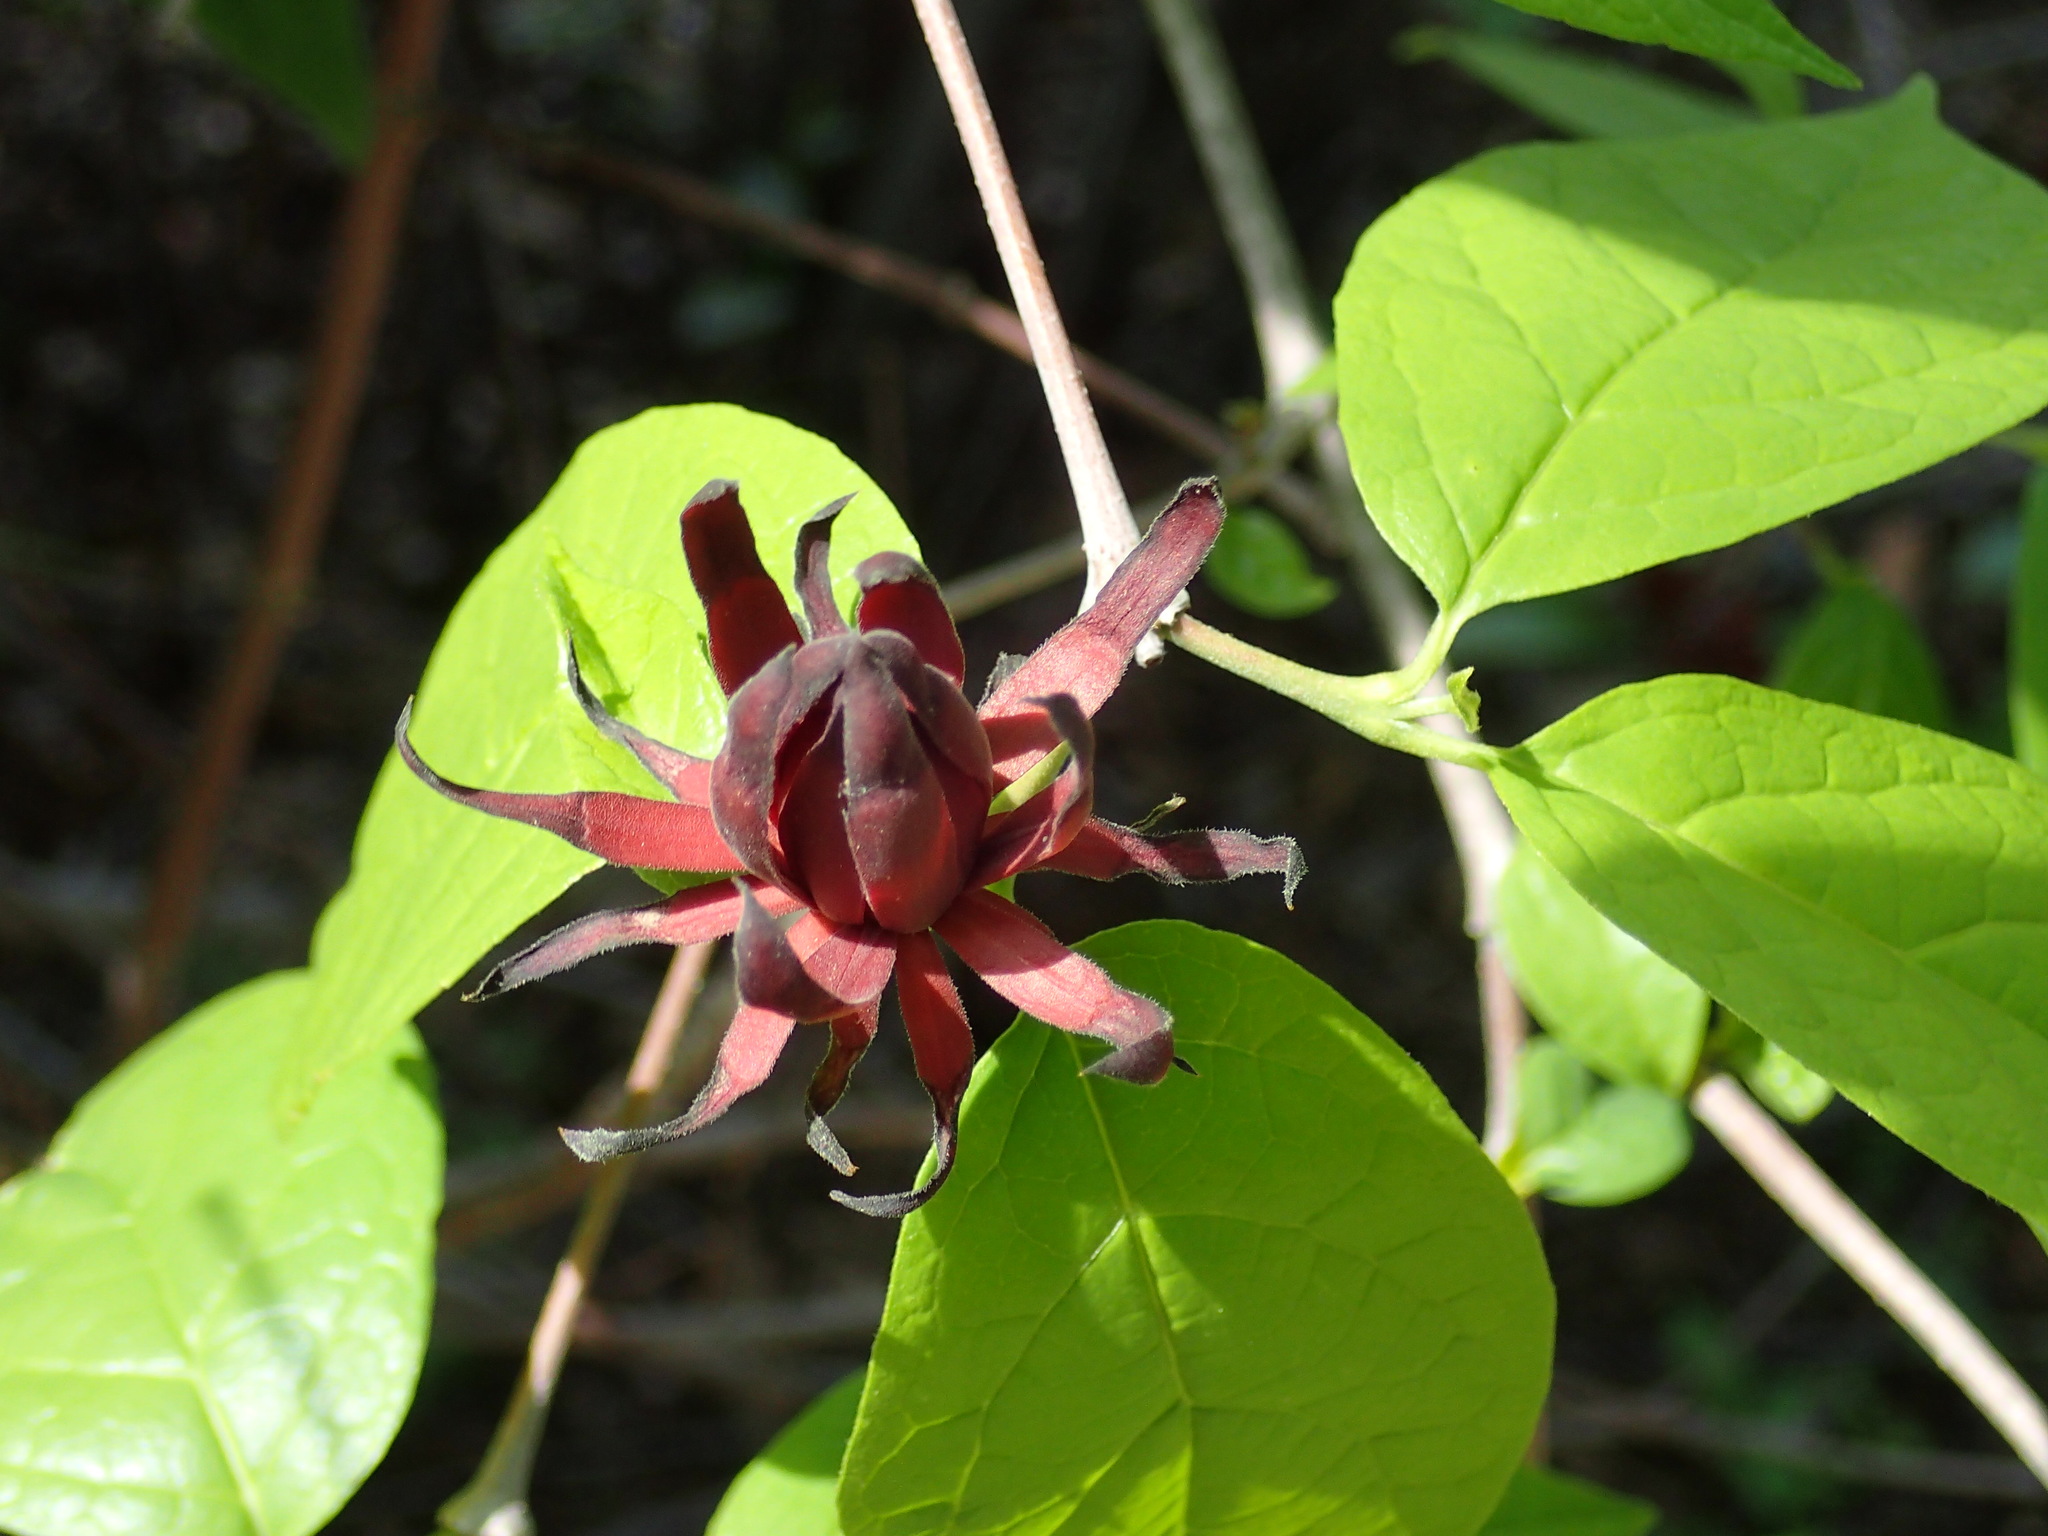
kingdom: Plantae
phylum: Tracheophyta
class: Magnoliopsida
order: Laurales
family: Calycanthaceae
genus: Calycanthus
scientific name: Calycanthus floridus
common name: Carolina-allspice
